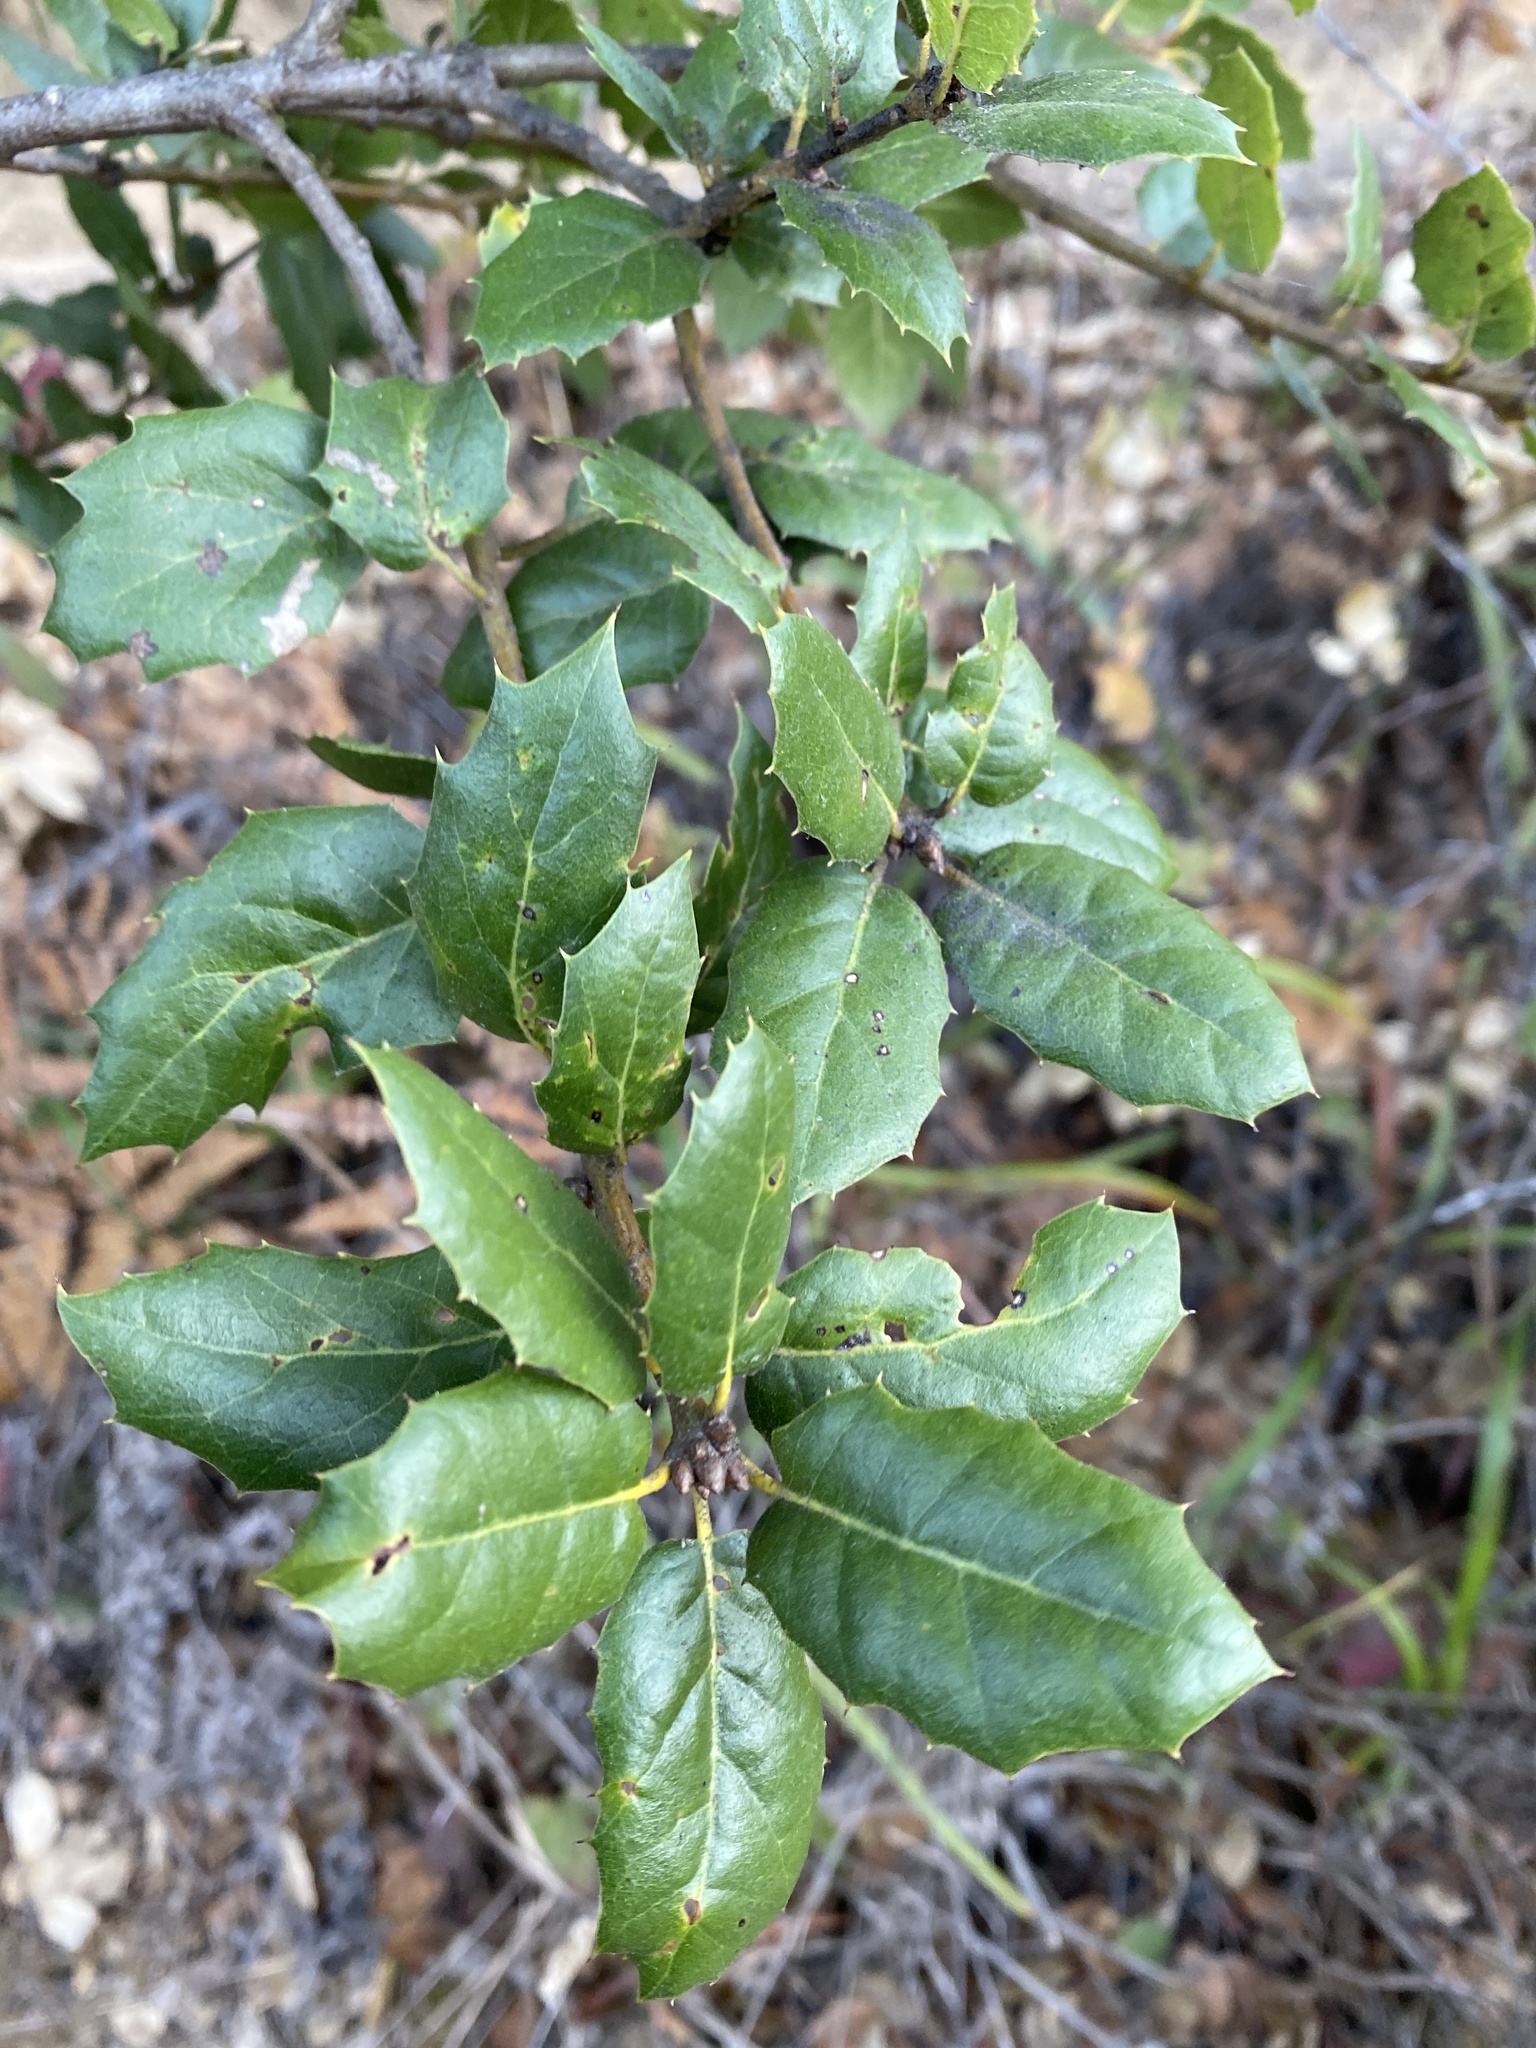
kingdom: Plantae
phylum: Tracheophyta
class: Magnoliopsida
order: Fagales
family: Fagaceae
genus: Quercus
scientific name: Quercus agrifolia
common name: California live oak
